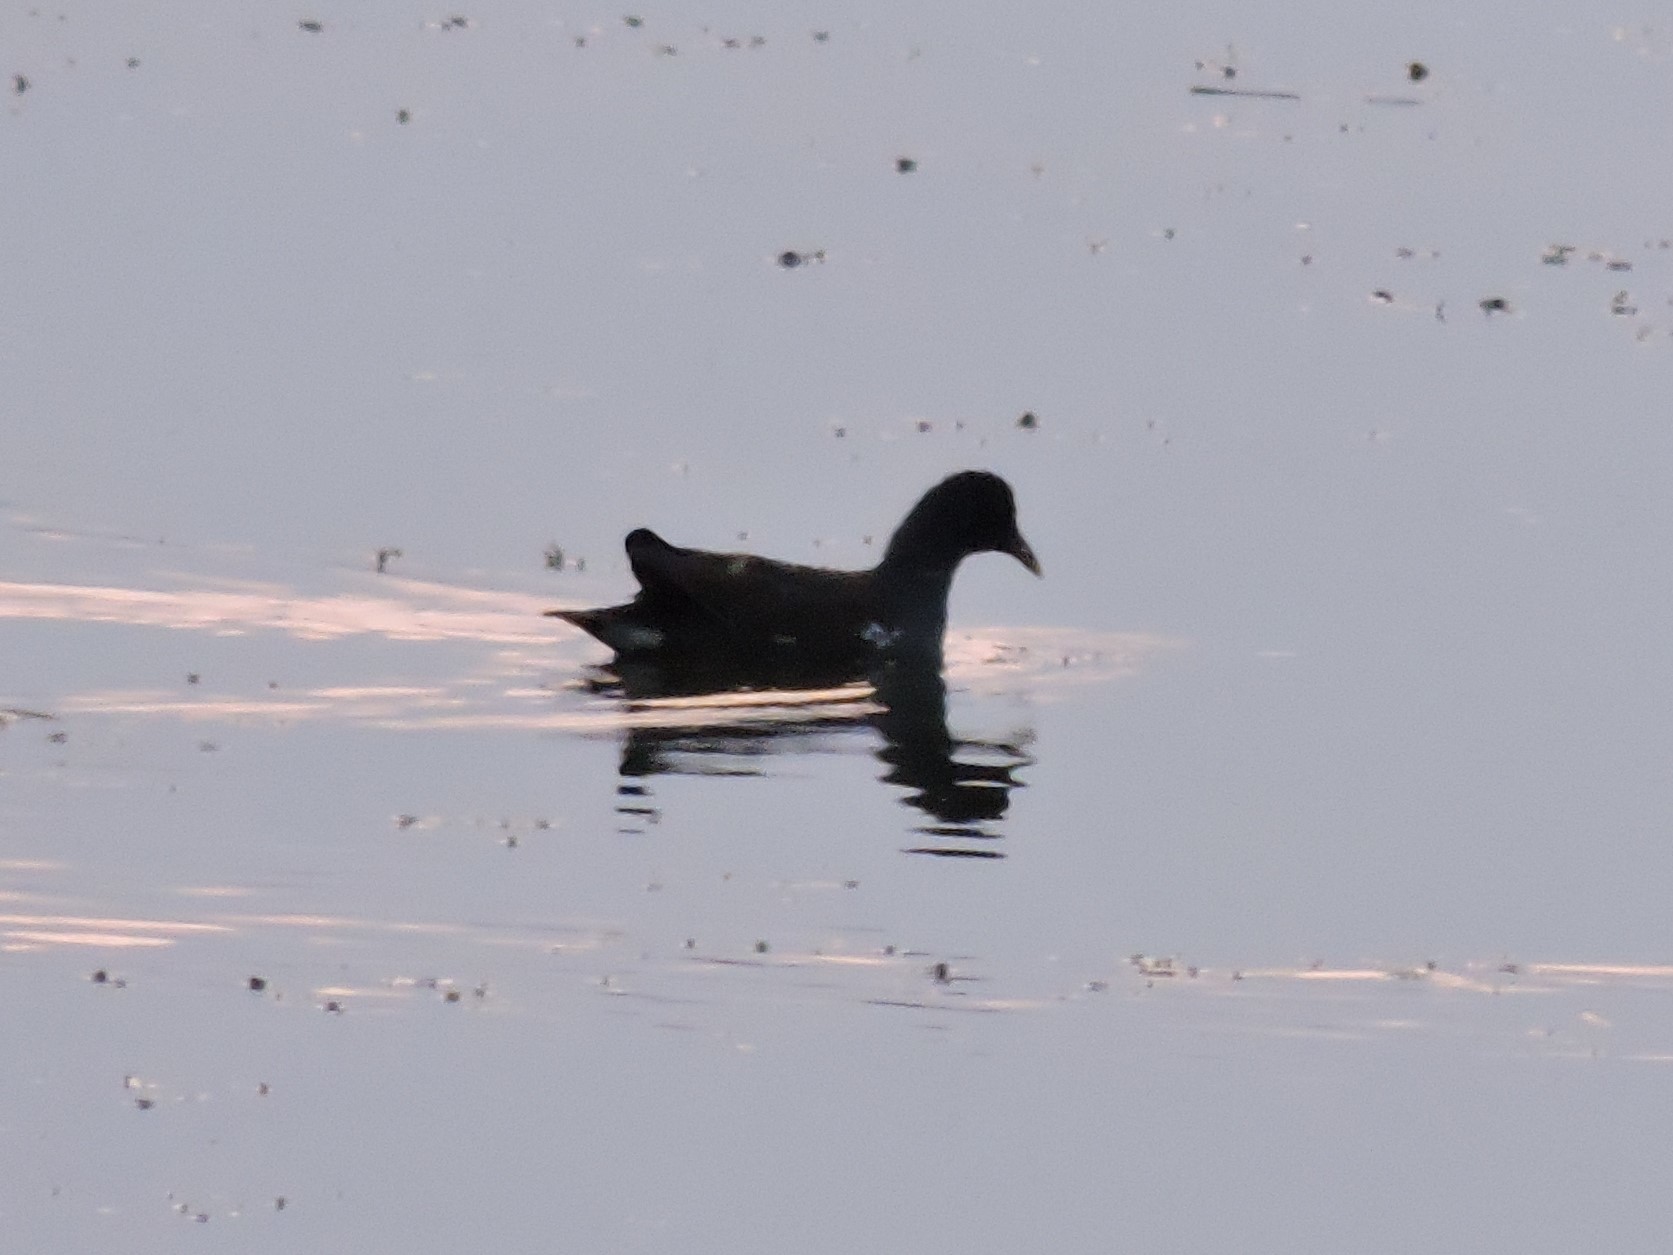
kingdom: Animalia
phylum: Chordata
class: Aves
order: Gruiformes
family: Rallidae
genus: Gallinula
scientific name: Gallinula chloropus
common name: Common moorhen
